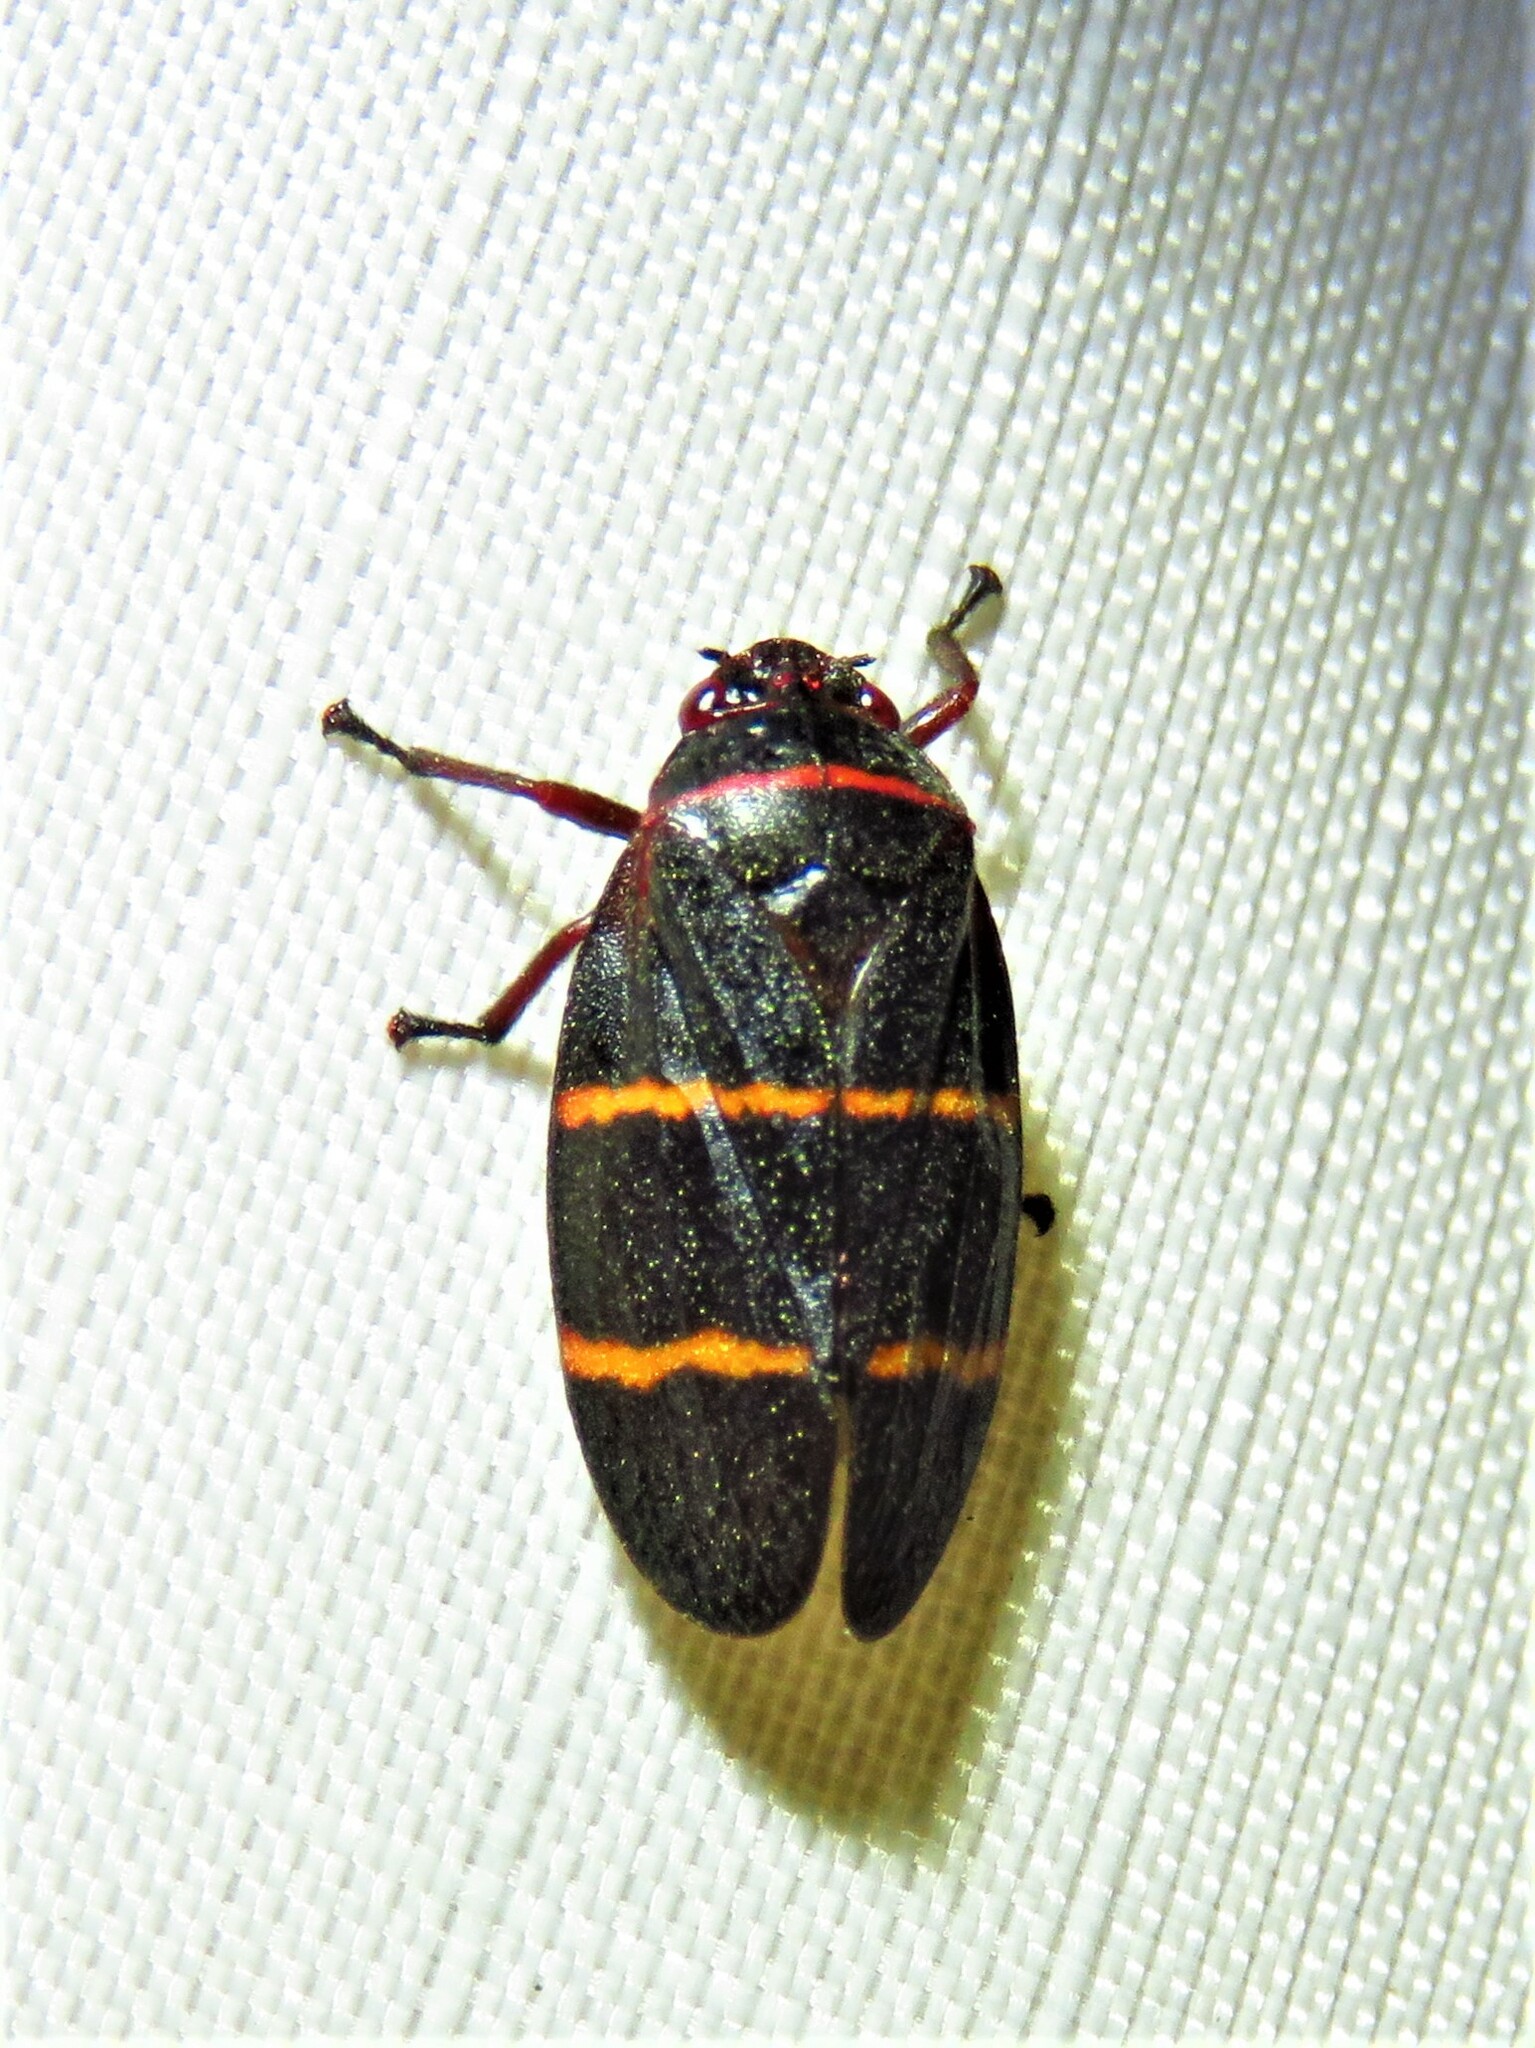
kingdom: Animalia
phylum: Arthropoda
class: Insecta
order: Hemiptera
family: Cercopidae
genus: Prosapia
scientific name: Prosapia bicincta
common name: Twolined spittlebug
